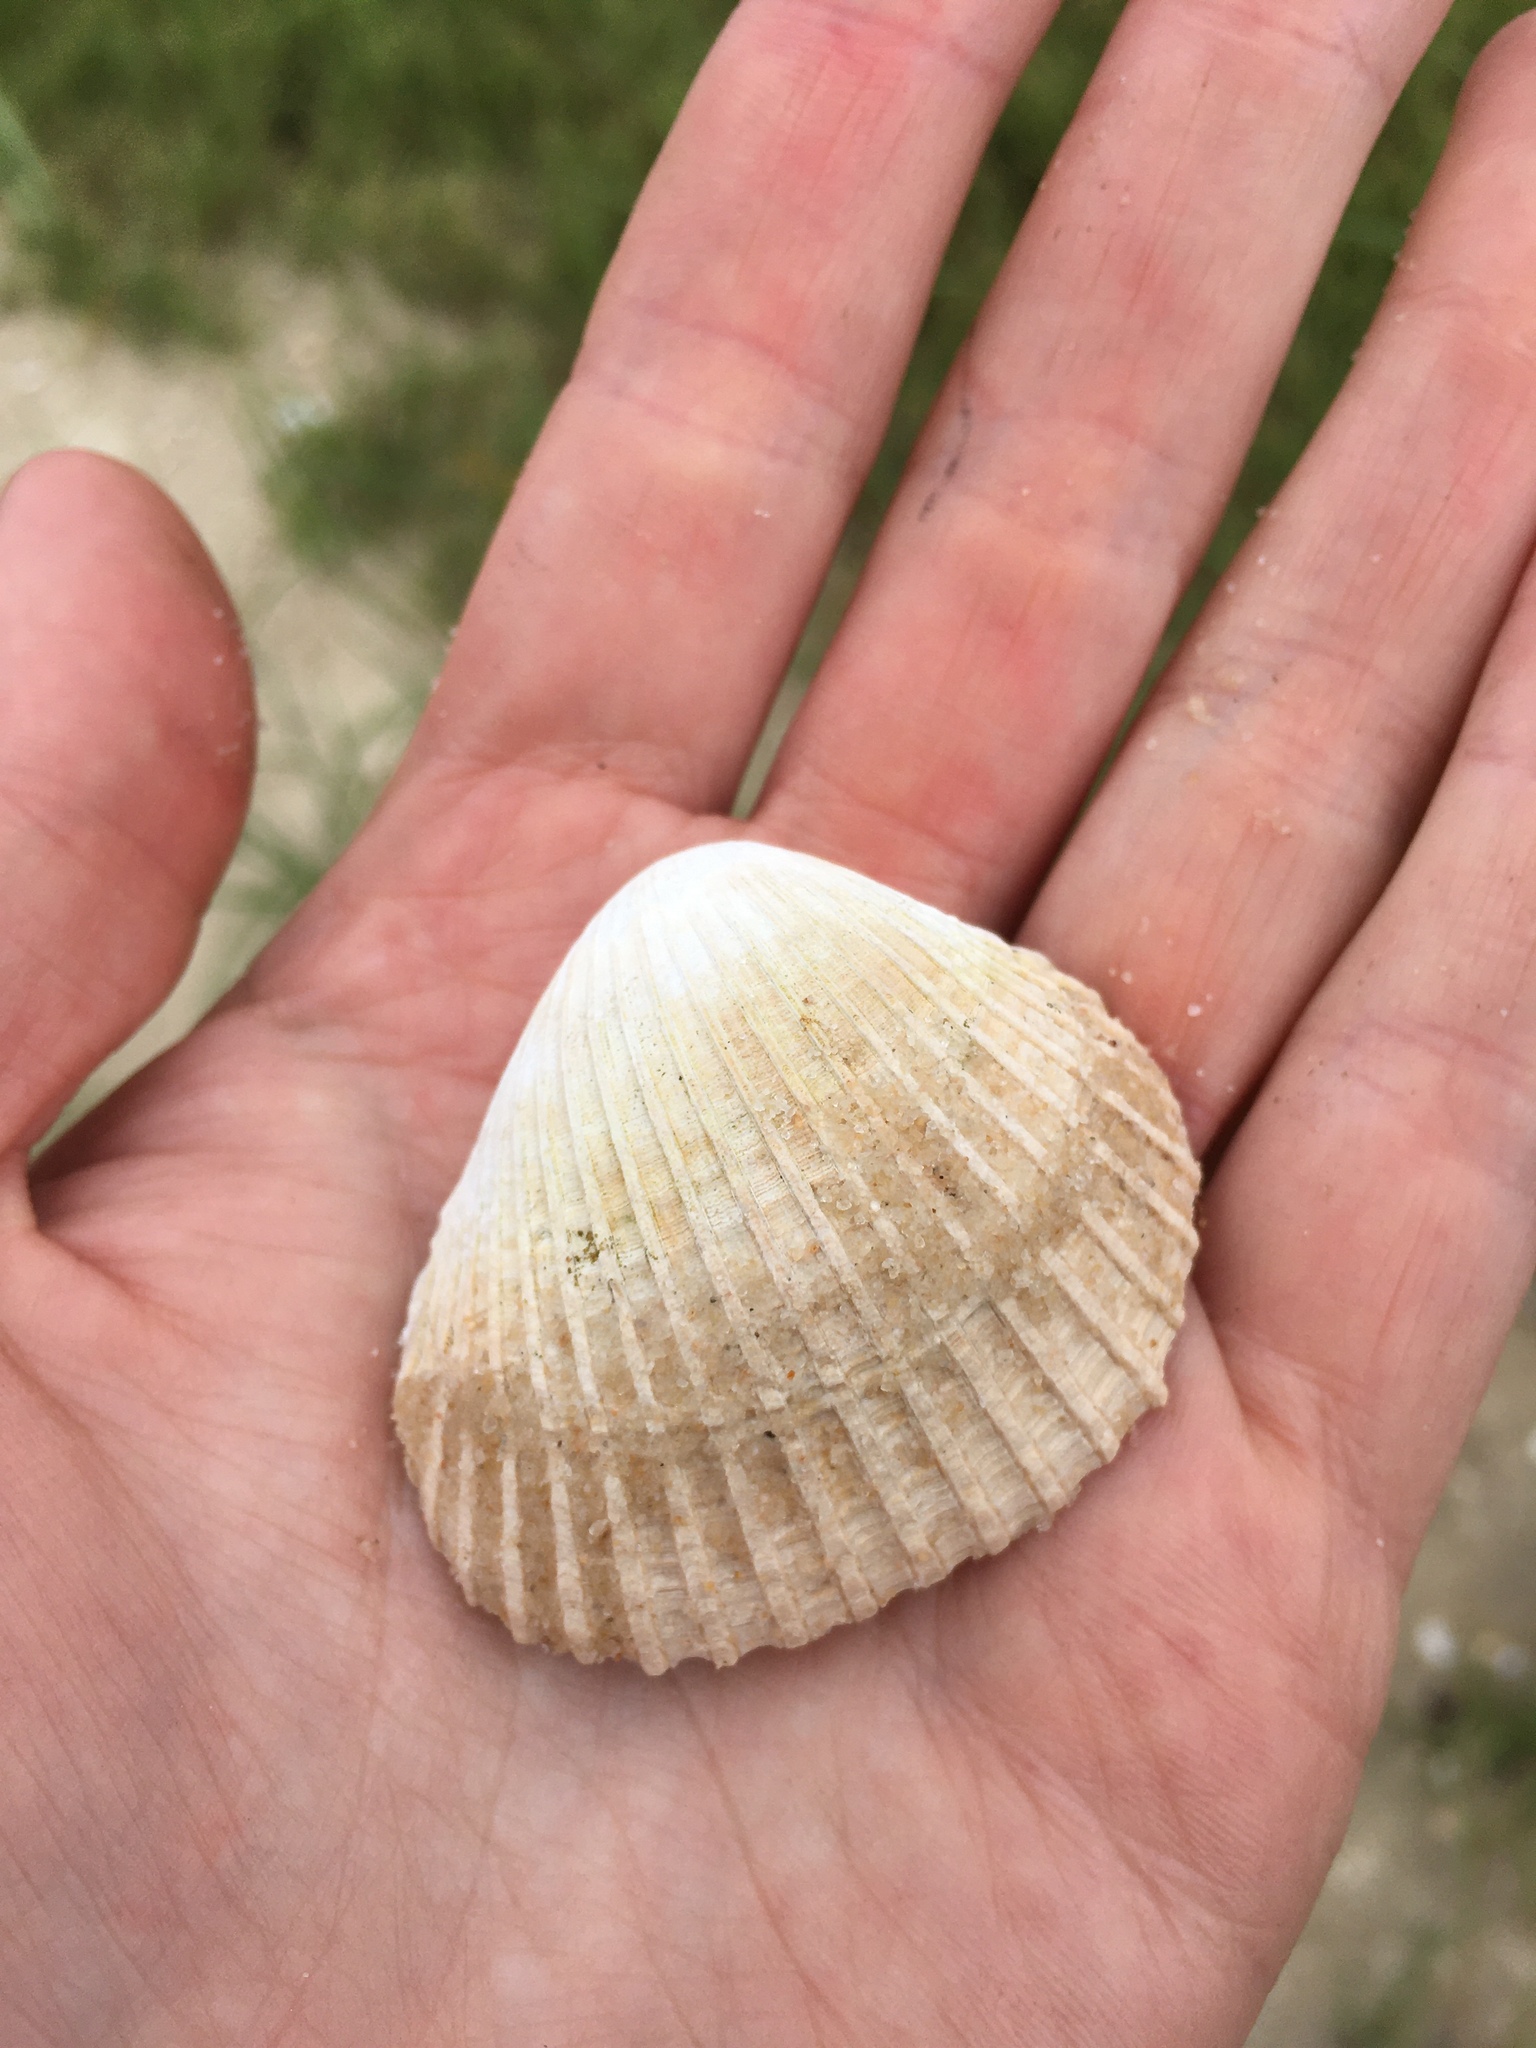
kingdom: Animalia
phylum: Mollusca
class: Bivalvia
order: Arcida
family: Arcidae
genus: Lunarca
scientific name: Lunarca ovalis
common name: Blood ark
